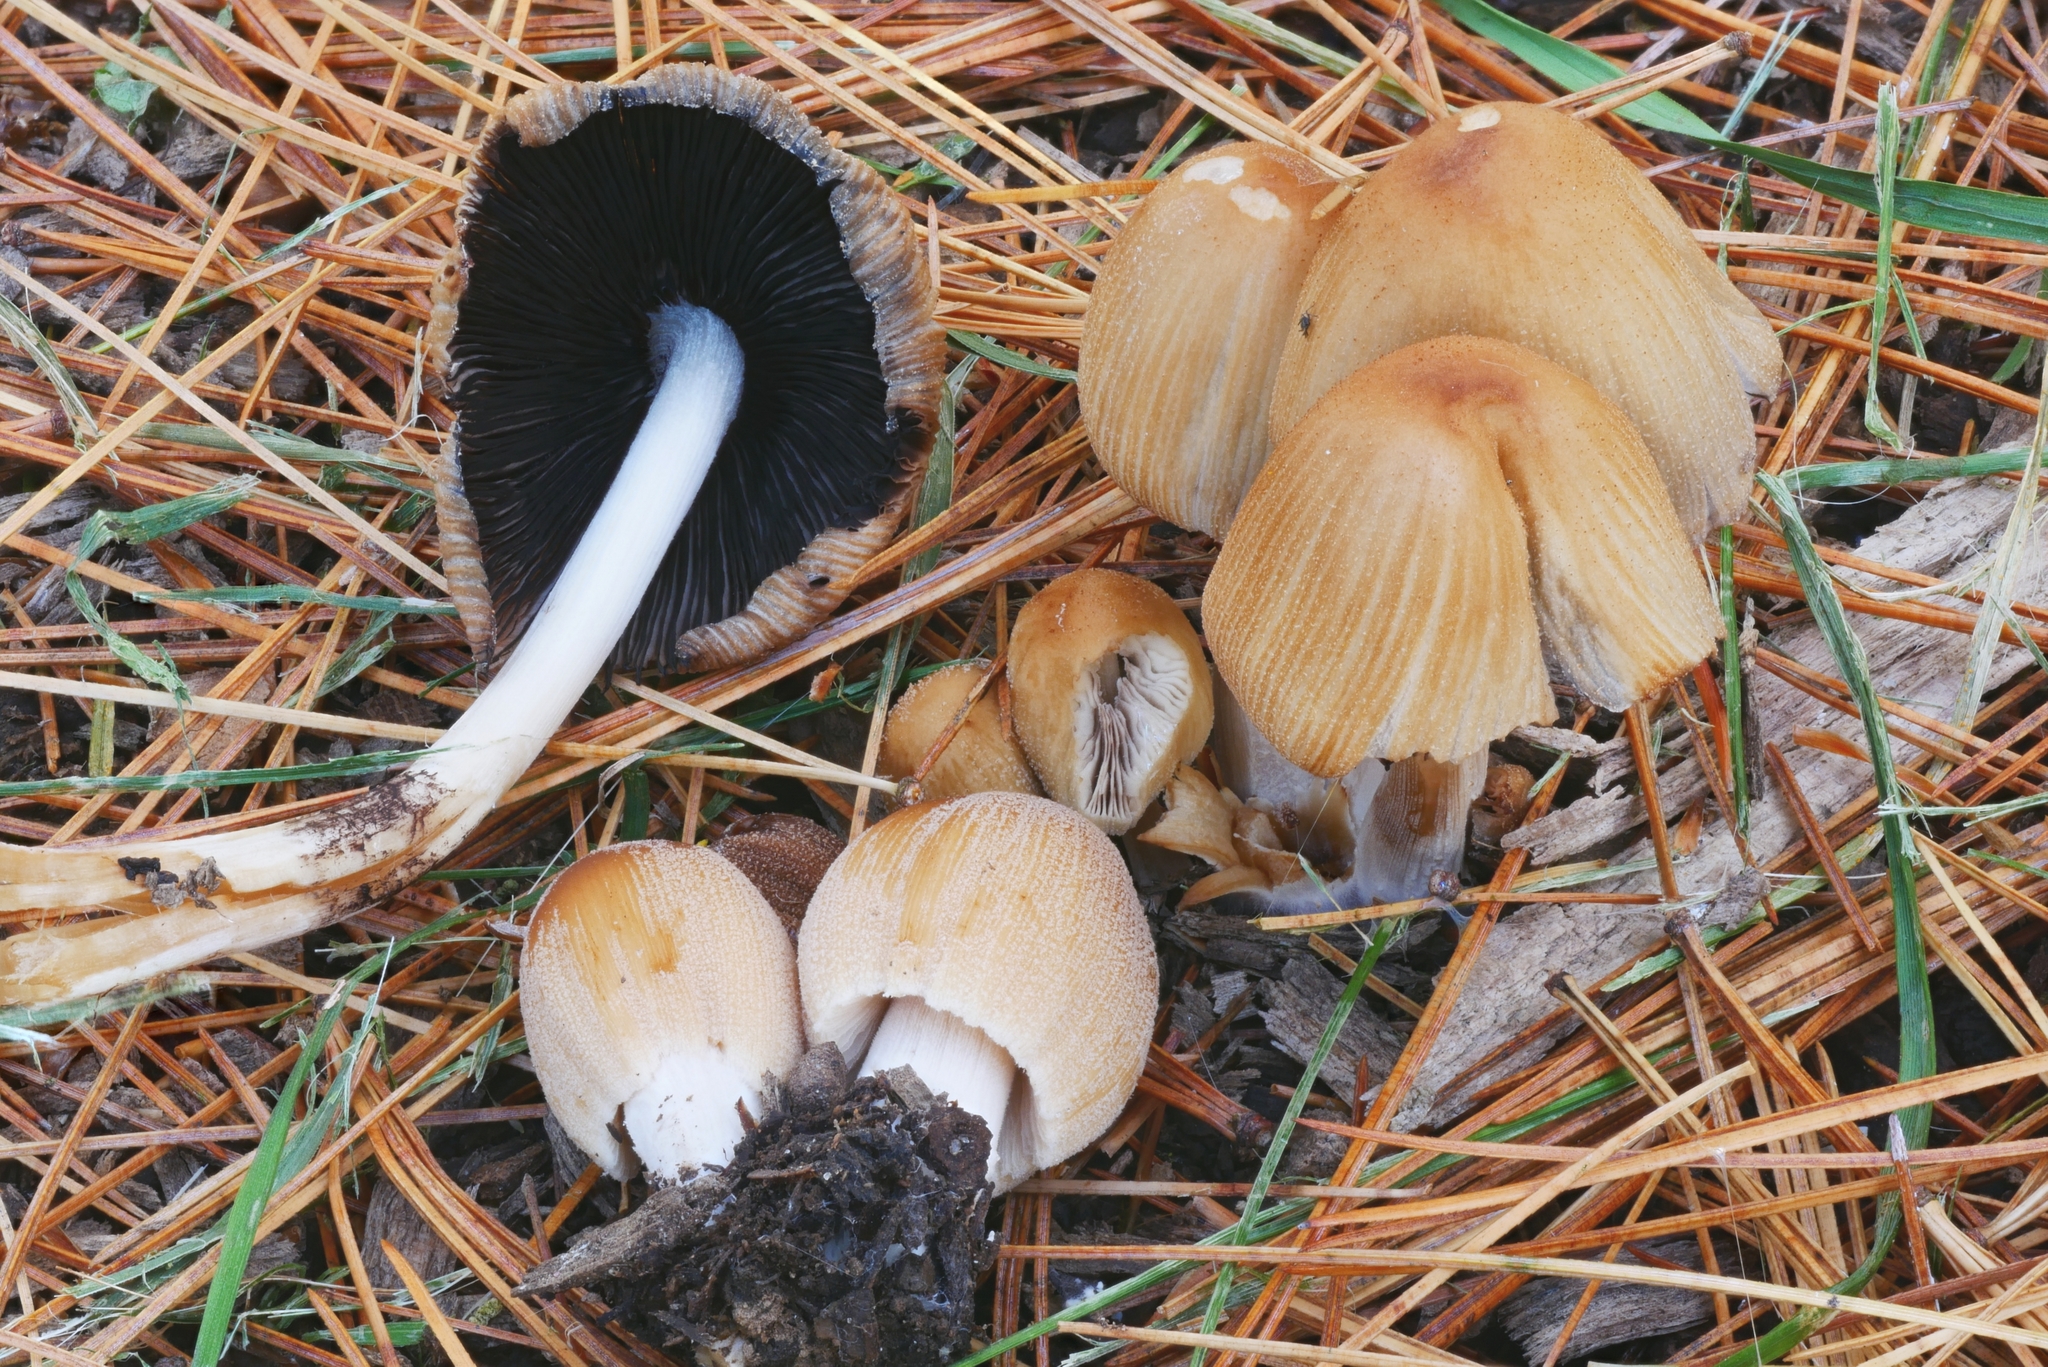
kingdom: Fungi
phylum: Basidiomycota
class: Agaricomycetes
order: Agaricales
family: Psathyrellaceae
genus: Coprinellus
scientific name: Coprinellus micaceus
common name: Glistening ink-cap
